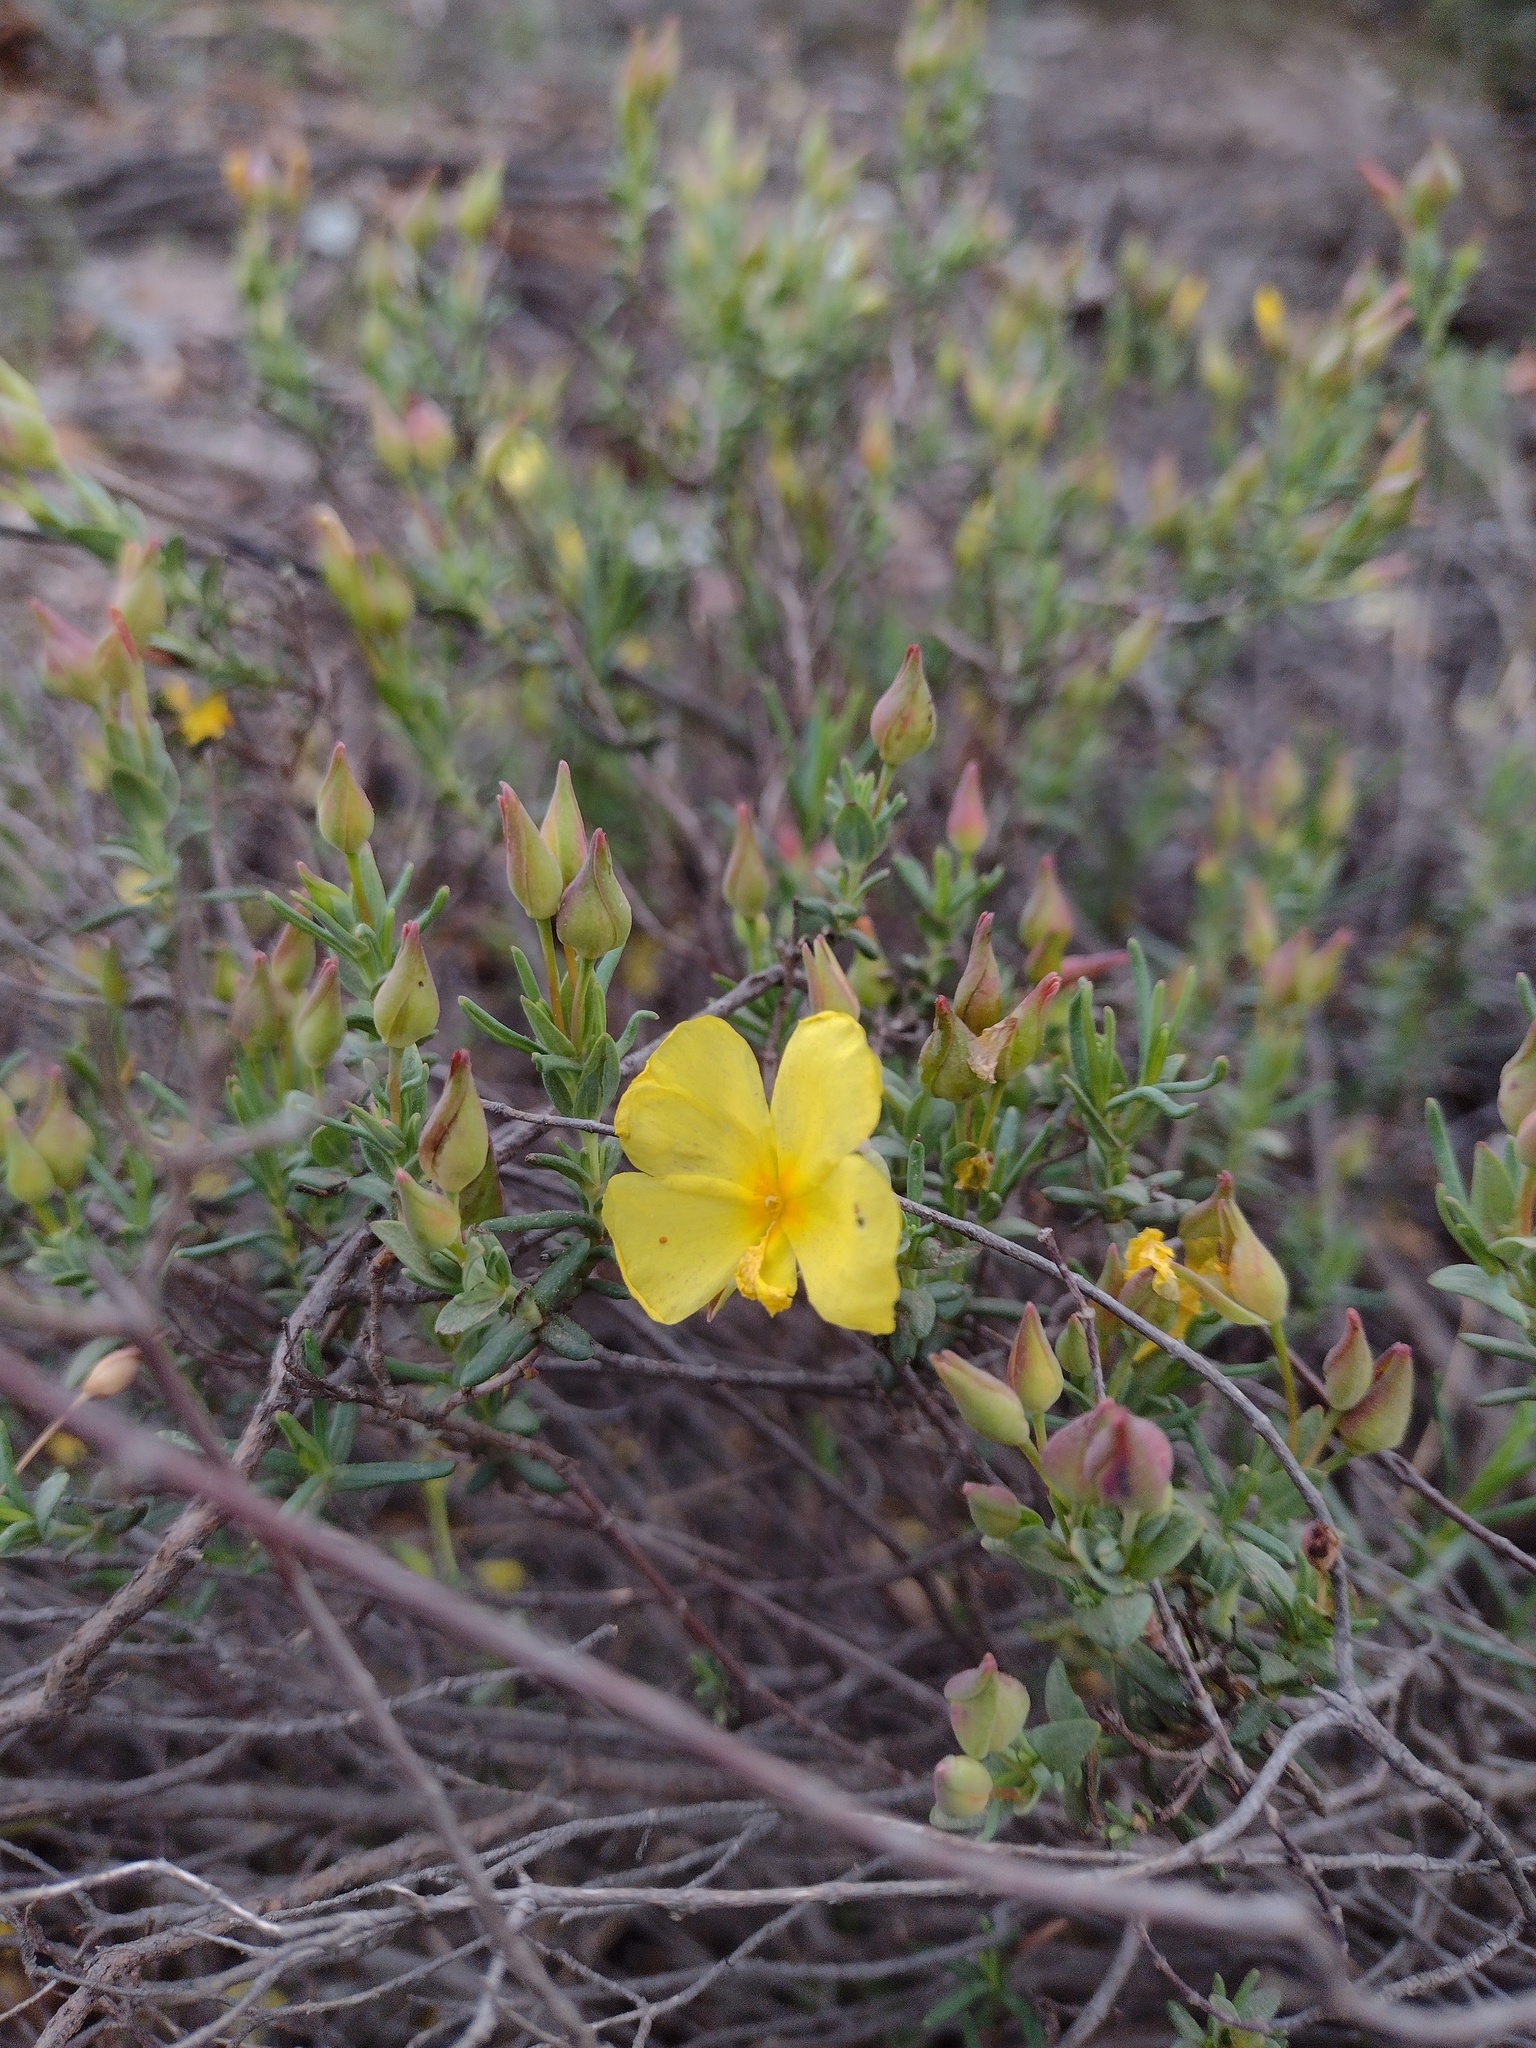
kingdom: Plantae
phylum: Tracheophyta
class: Magnoliopsida
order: Malvales
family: Cistaceae
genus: Halimium
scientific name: Halimium calycinum
